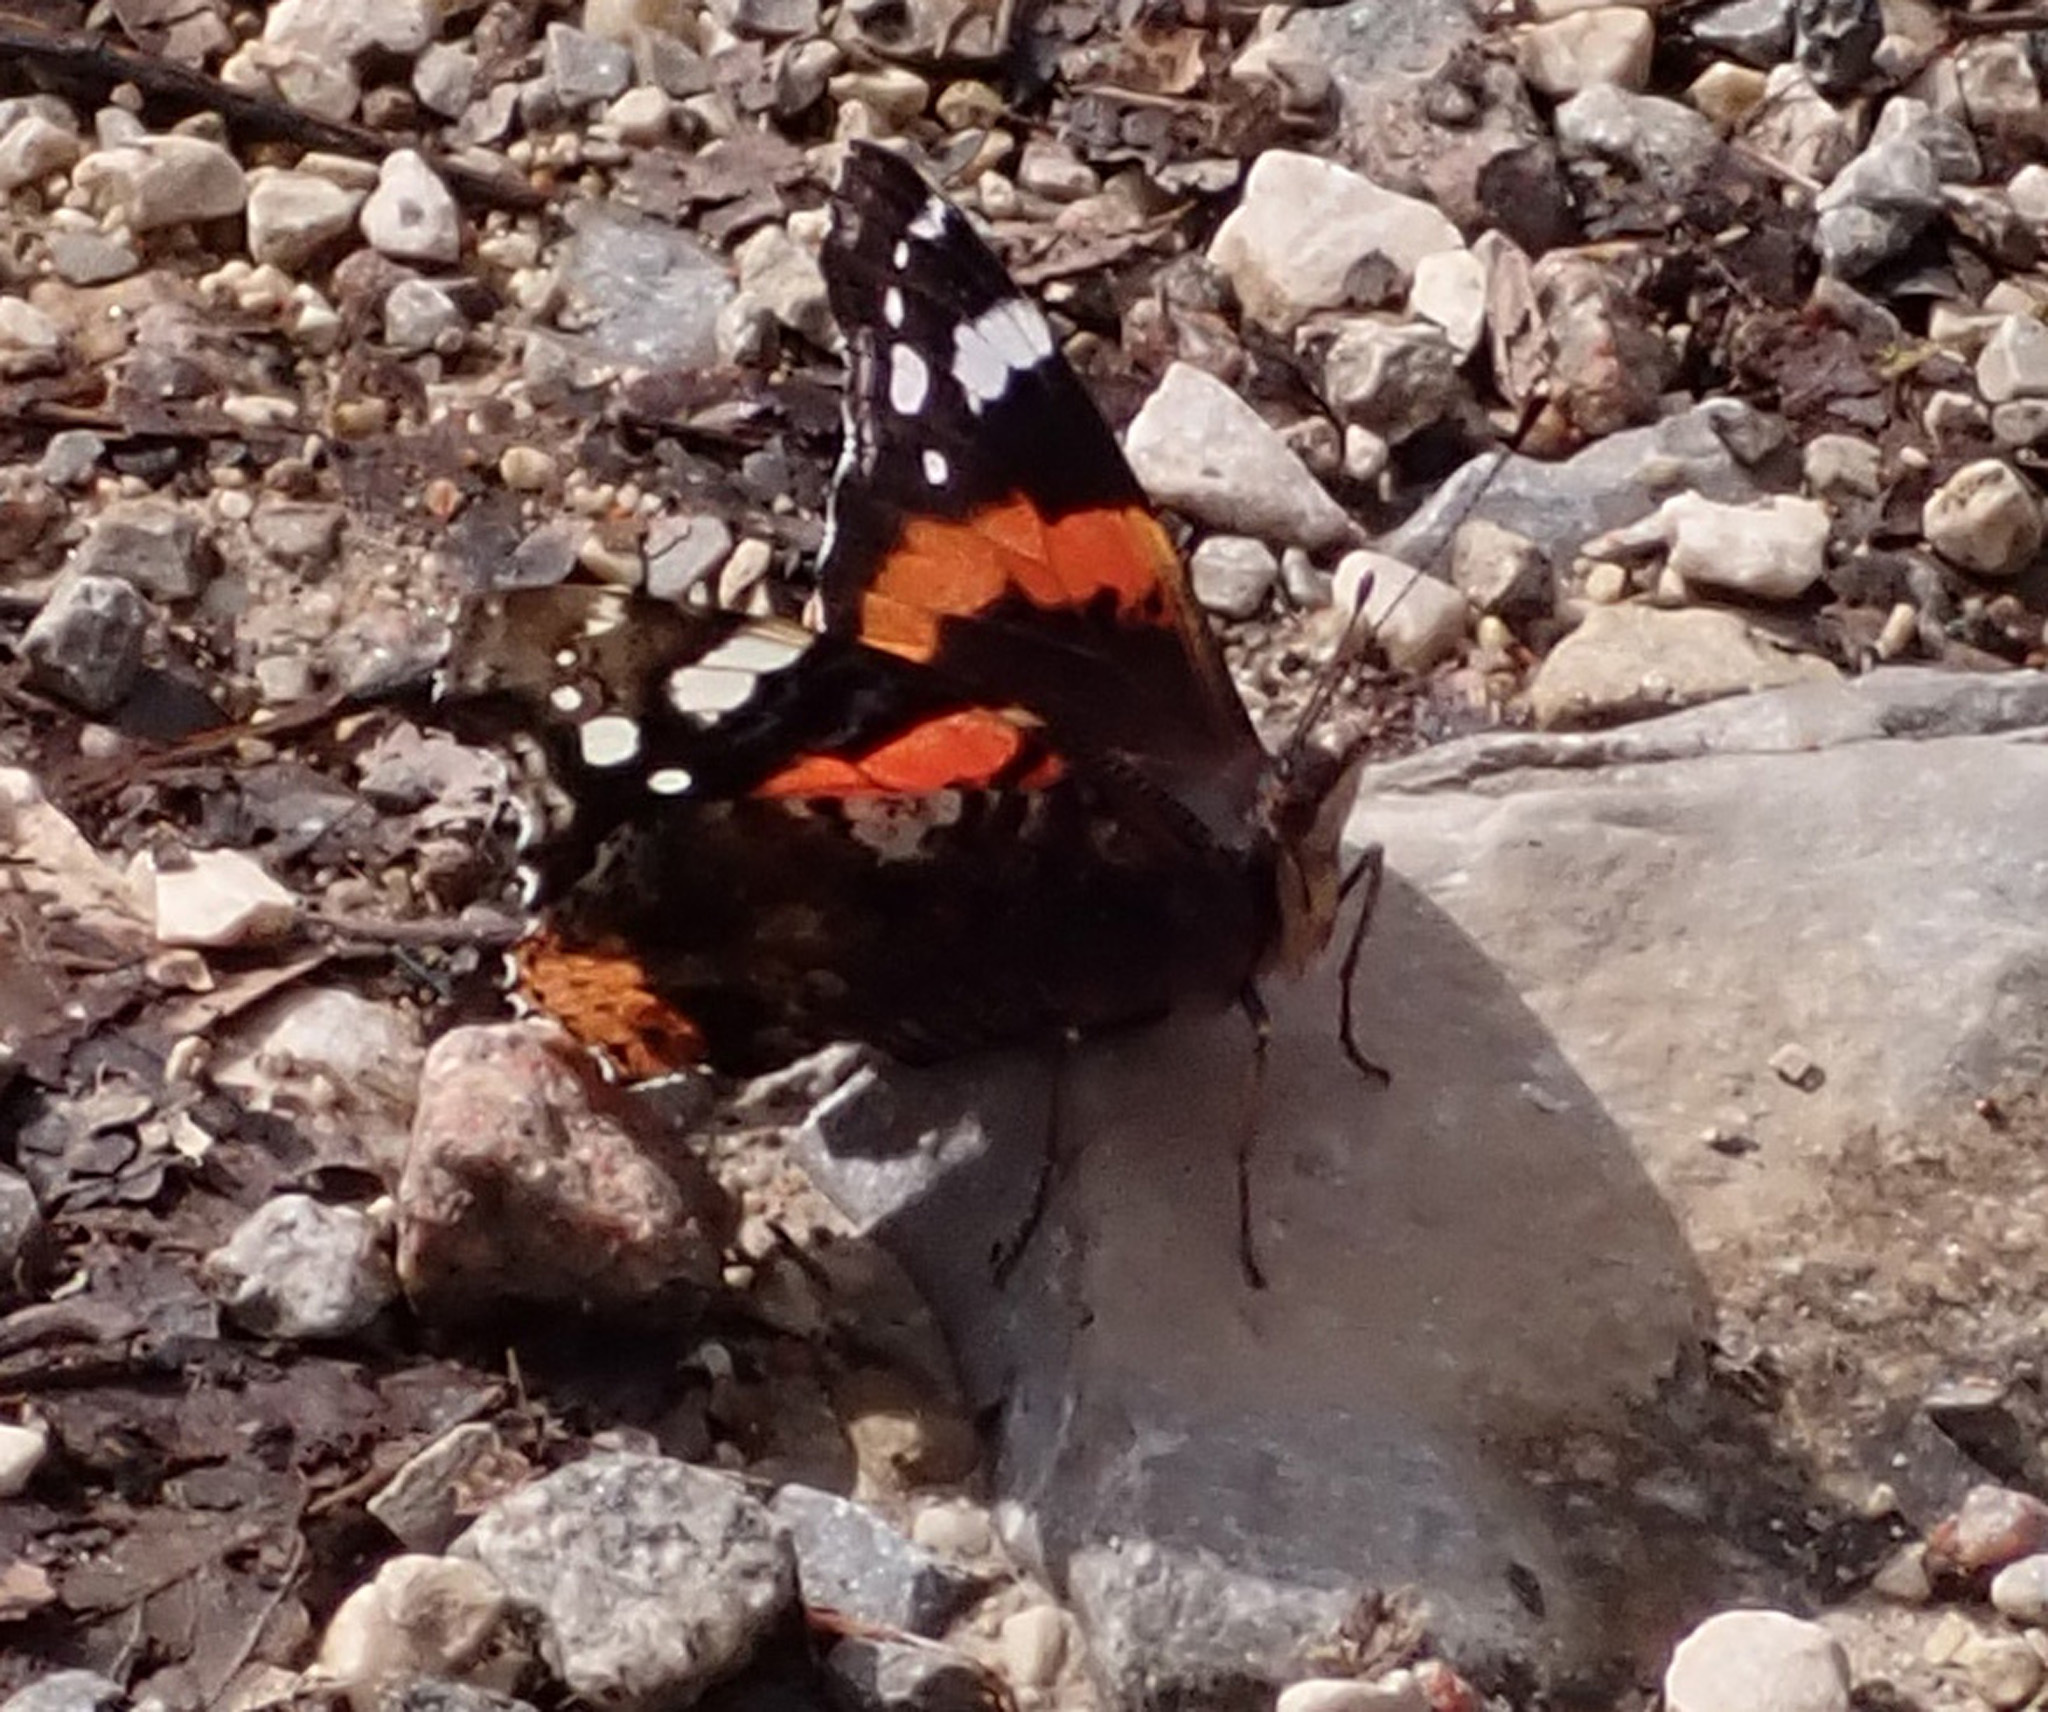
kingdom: Animalia
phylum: Arthropoda
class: Insecta
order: Lepidoptera
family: Nymphalidae
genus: Vanessa
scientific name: Vanessa atalanta
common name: Red admiral
